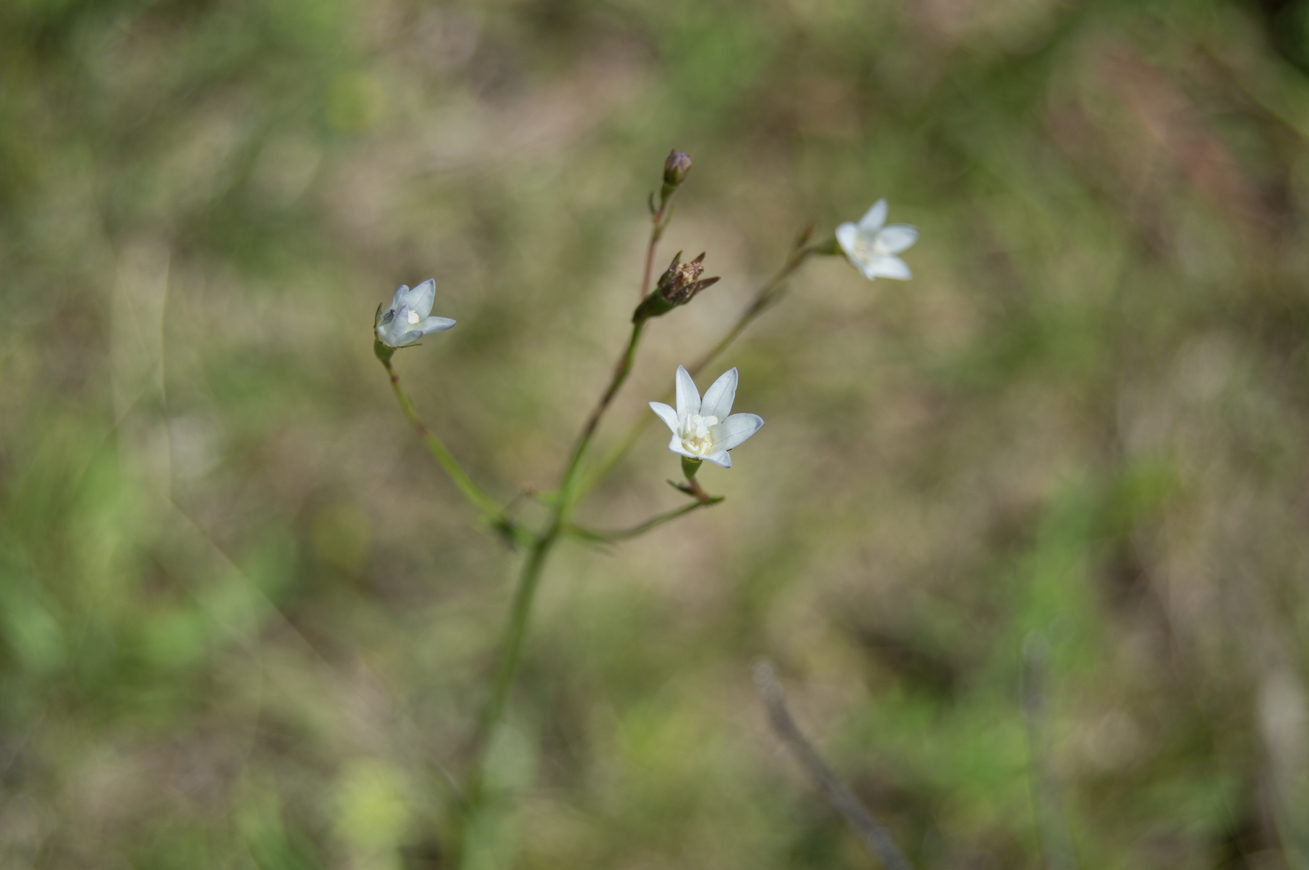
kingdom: Plantae
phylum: Tracheophyta
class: Magnoliopsida
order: Asterales
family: Campanulaceae
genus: Wahlenbergia
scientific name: Wahlenbergia linarioides
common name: Tuffybells
